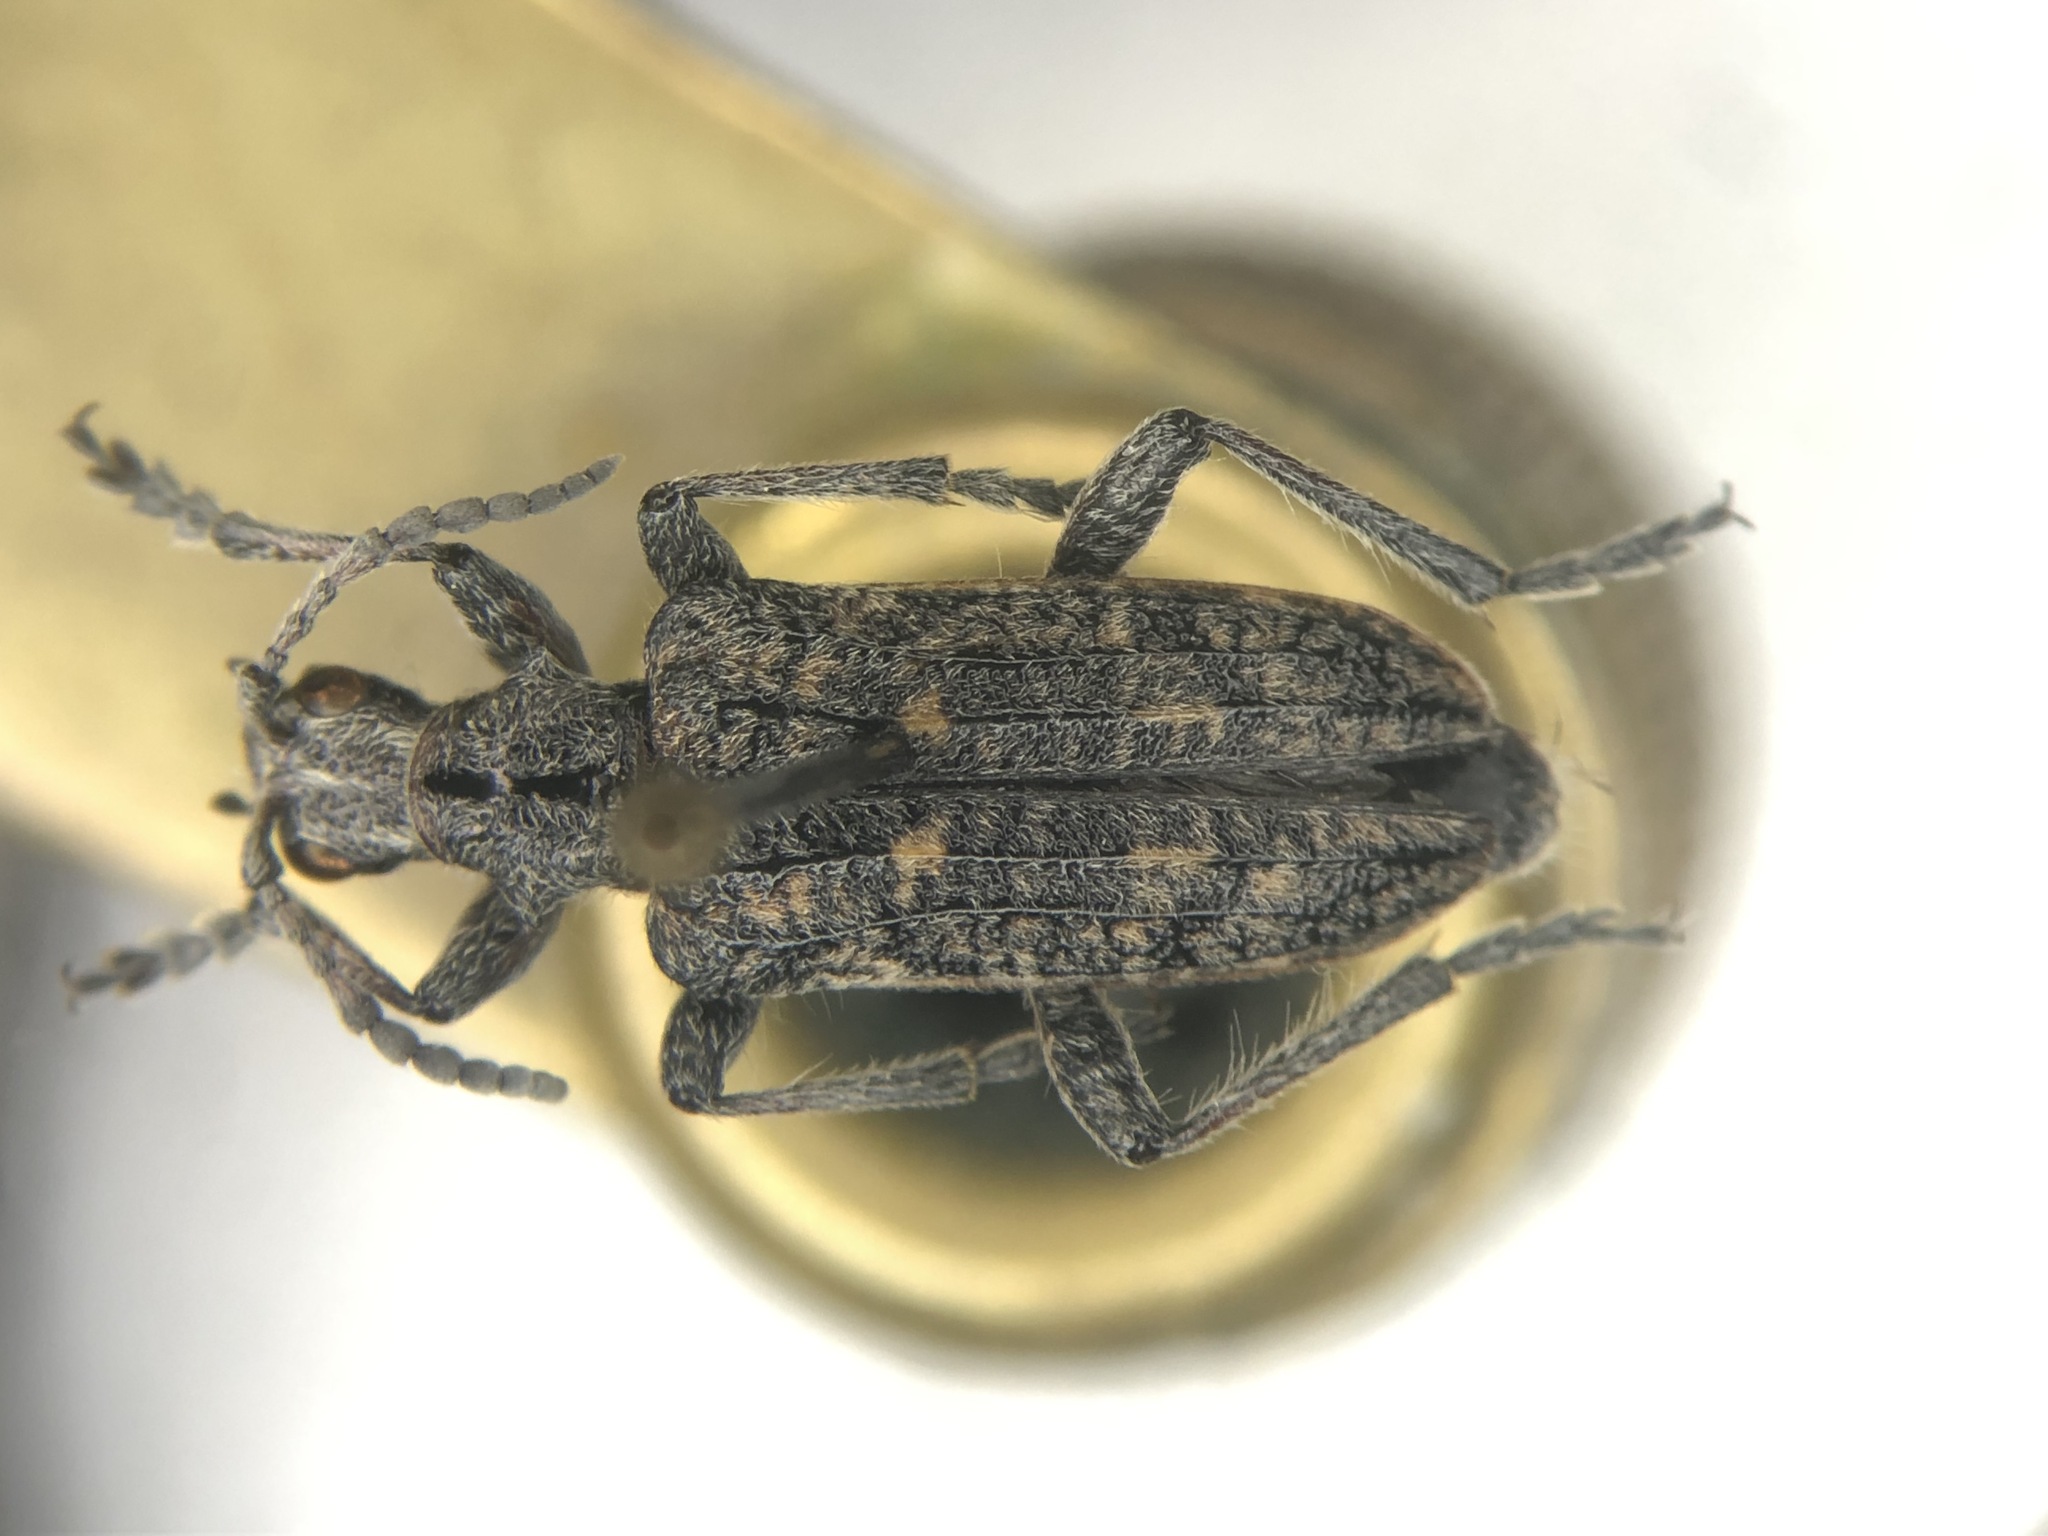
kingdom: Animalia
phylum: Arthropoda
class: Insecta
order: Coleoptera
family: Cerambycidae
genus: Rhagium
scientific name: Rhagium inquisitor
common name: Ribbed pine borer
